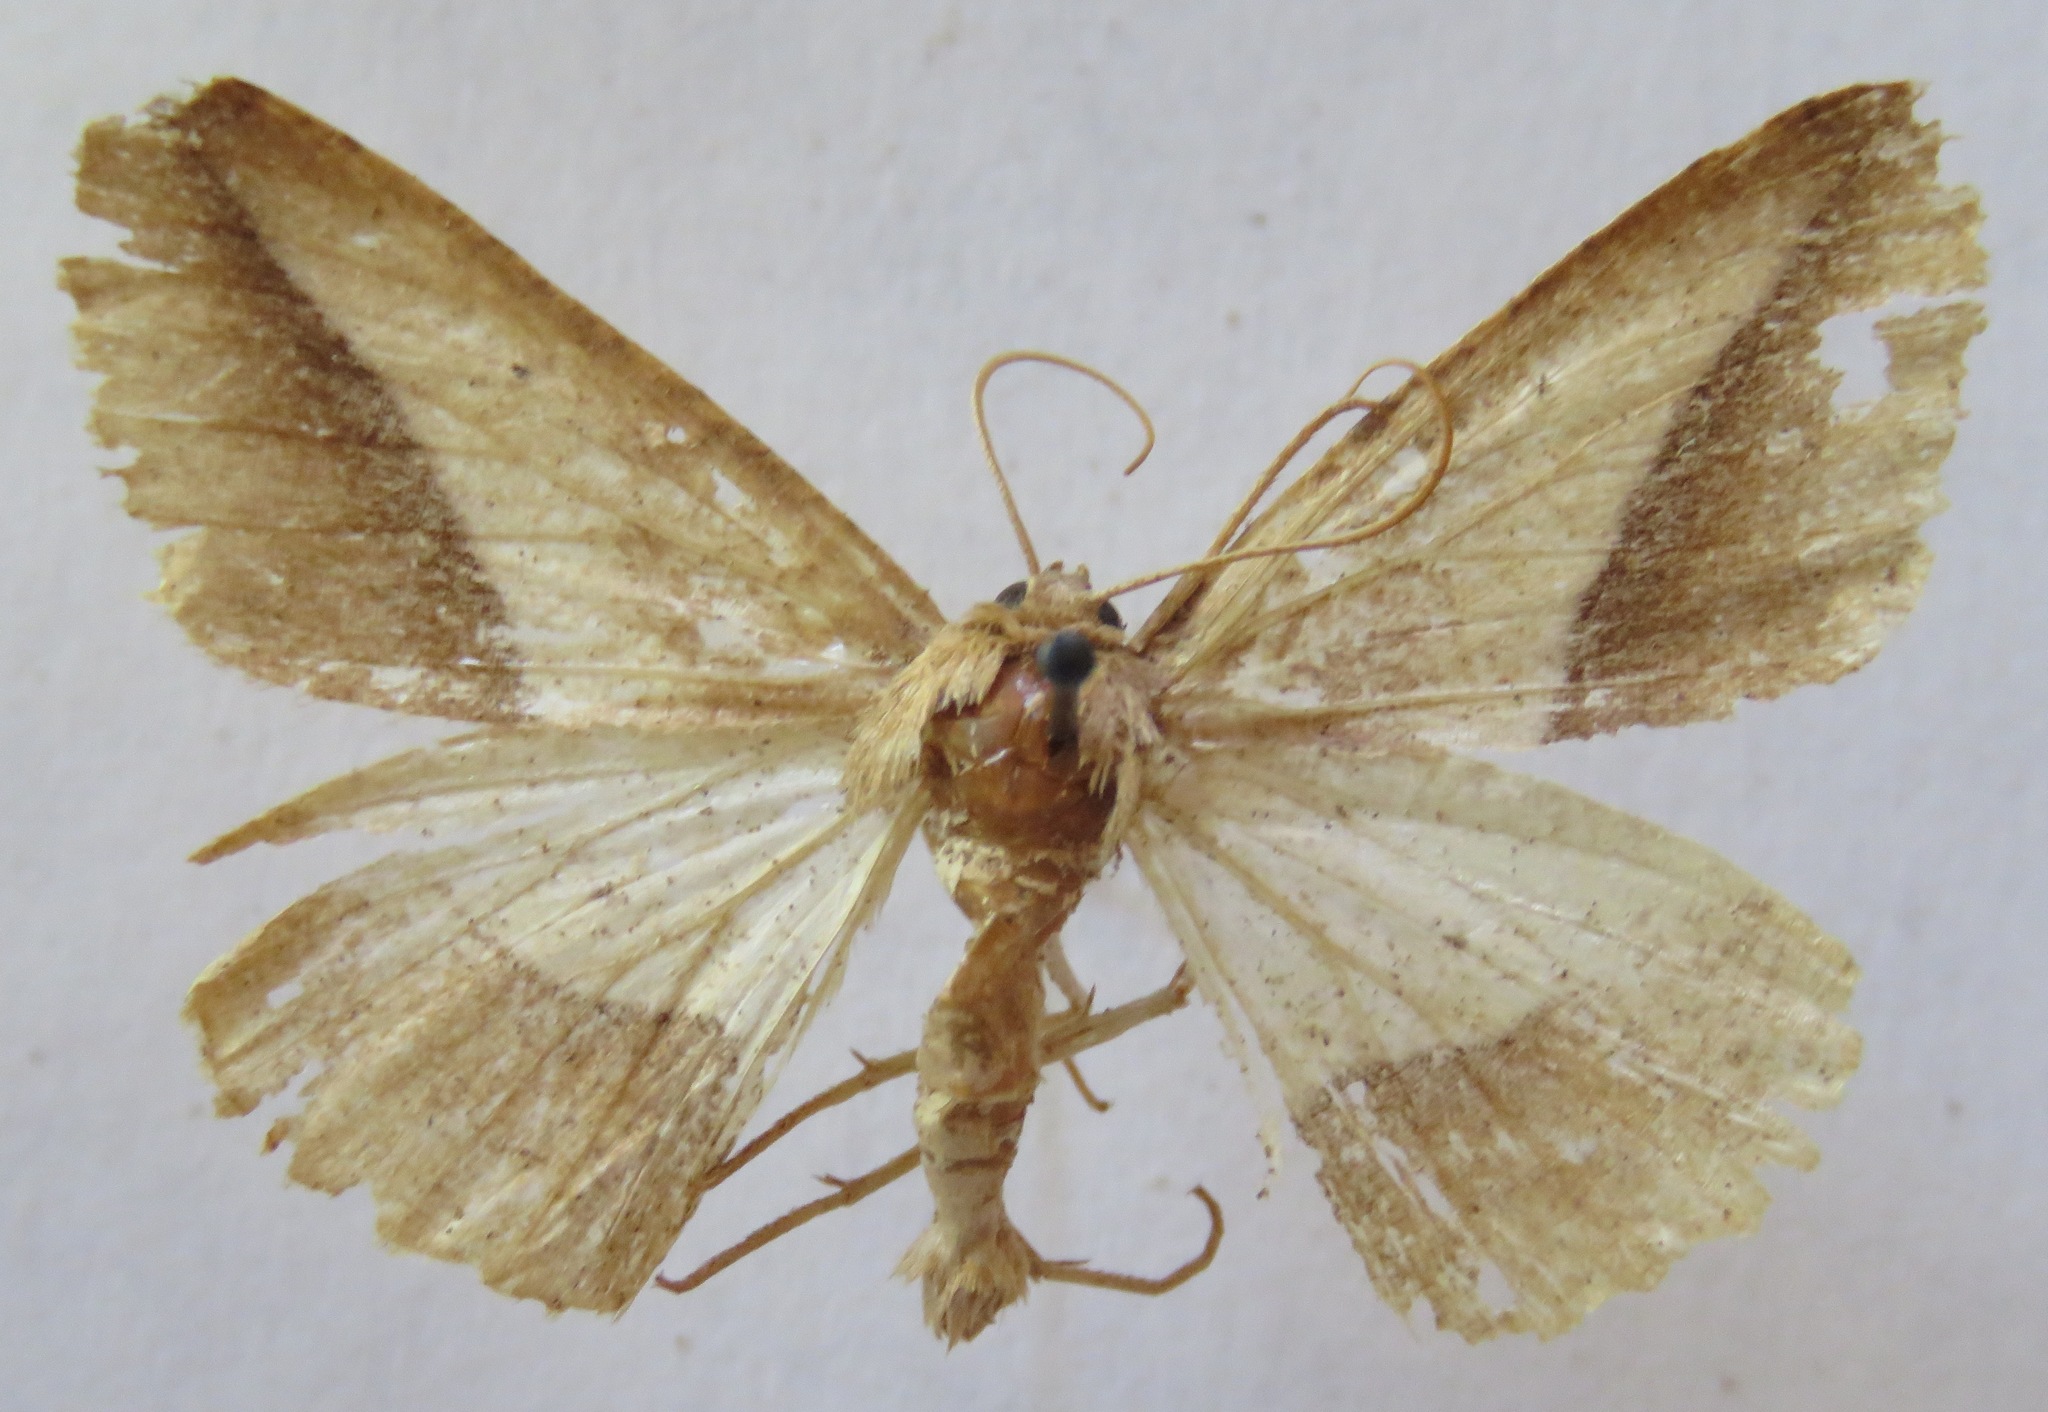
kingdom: Animalia
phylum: Arthropoda
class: Insecta
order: Lepidoptera
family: Geometridae
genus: Bassania
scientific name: Bassania umbrimargo
